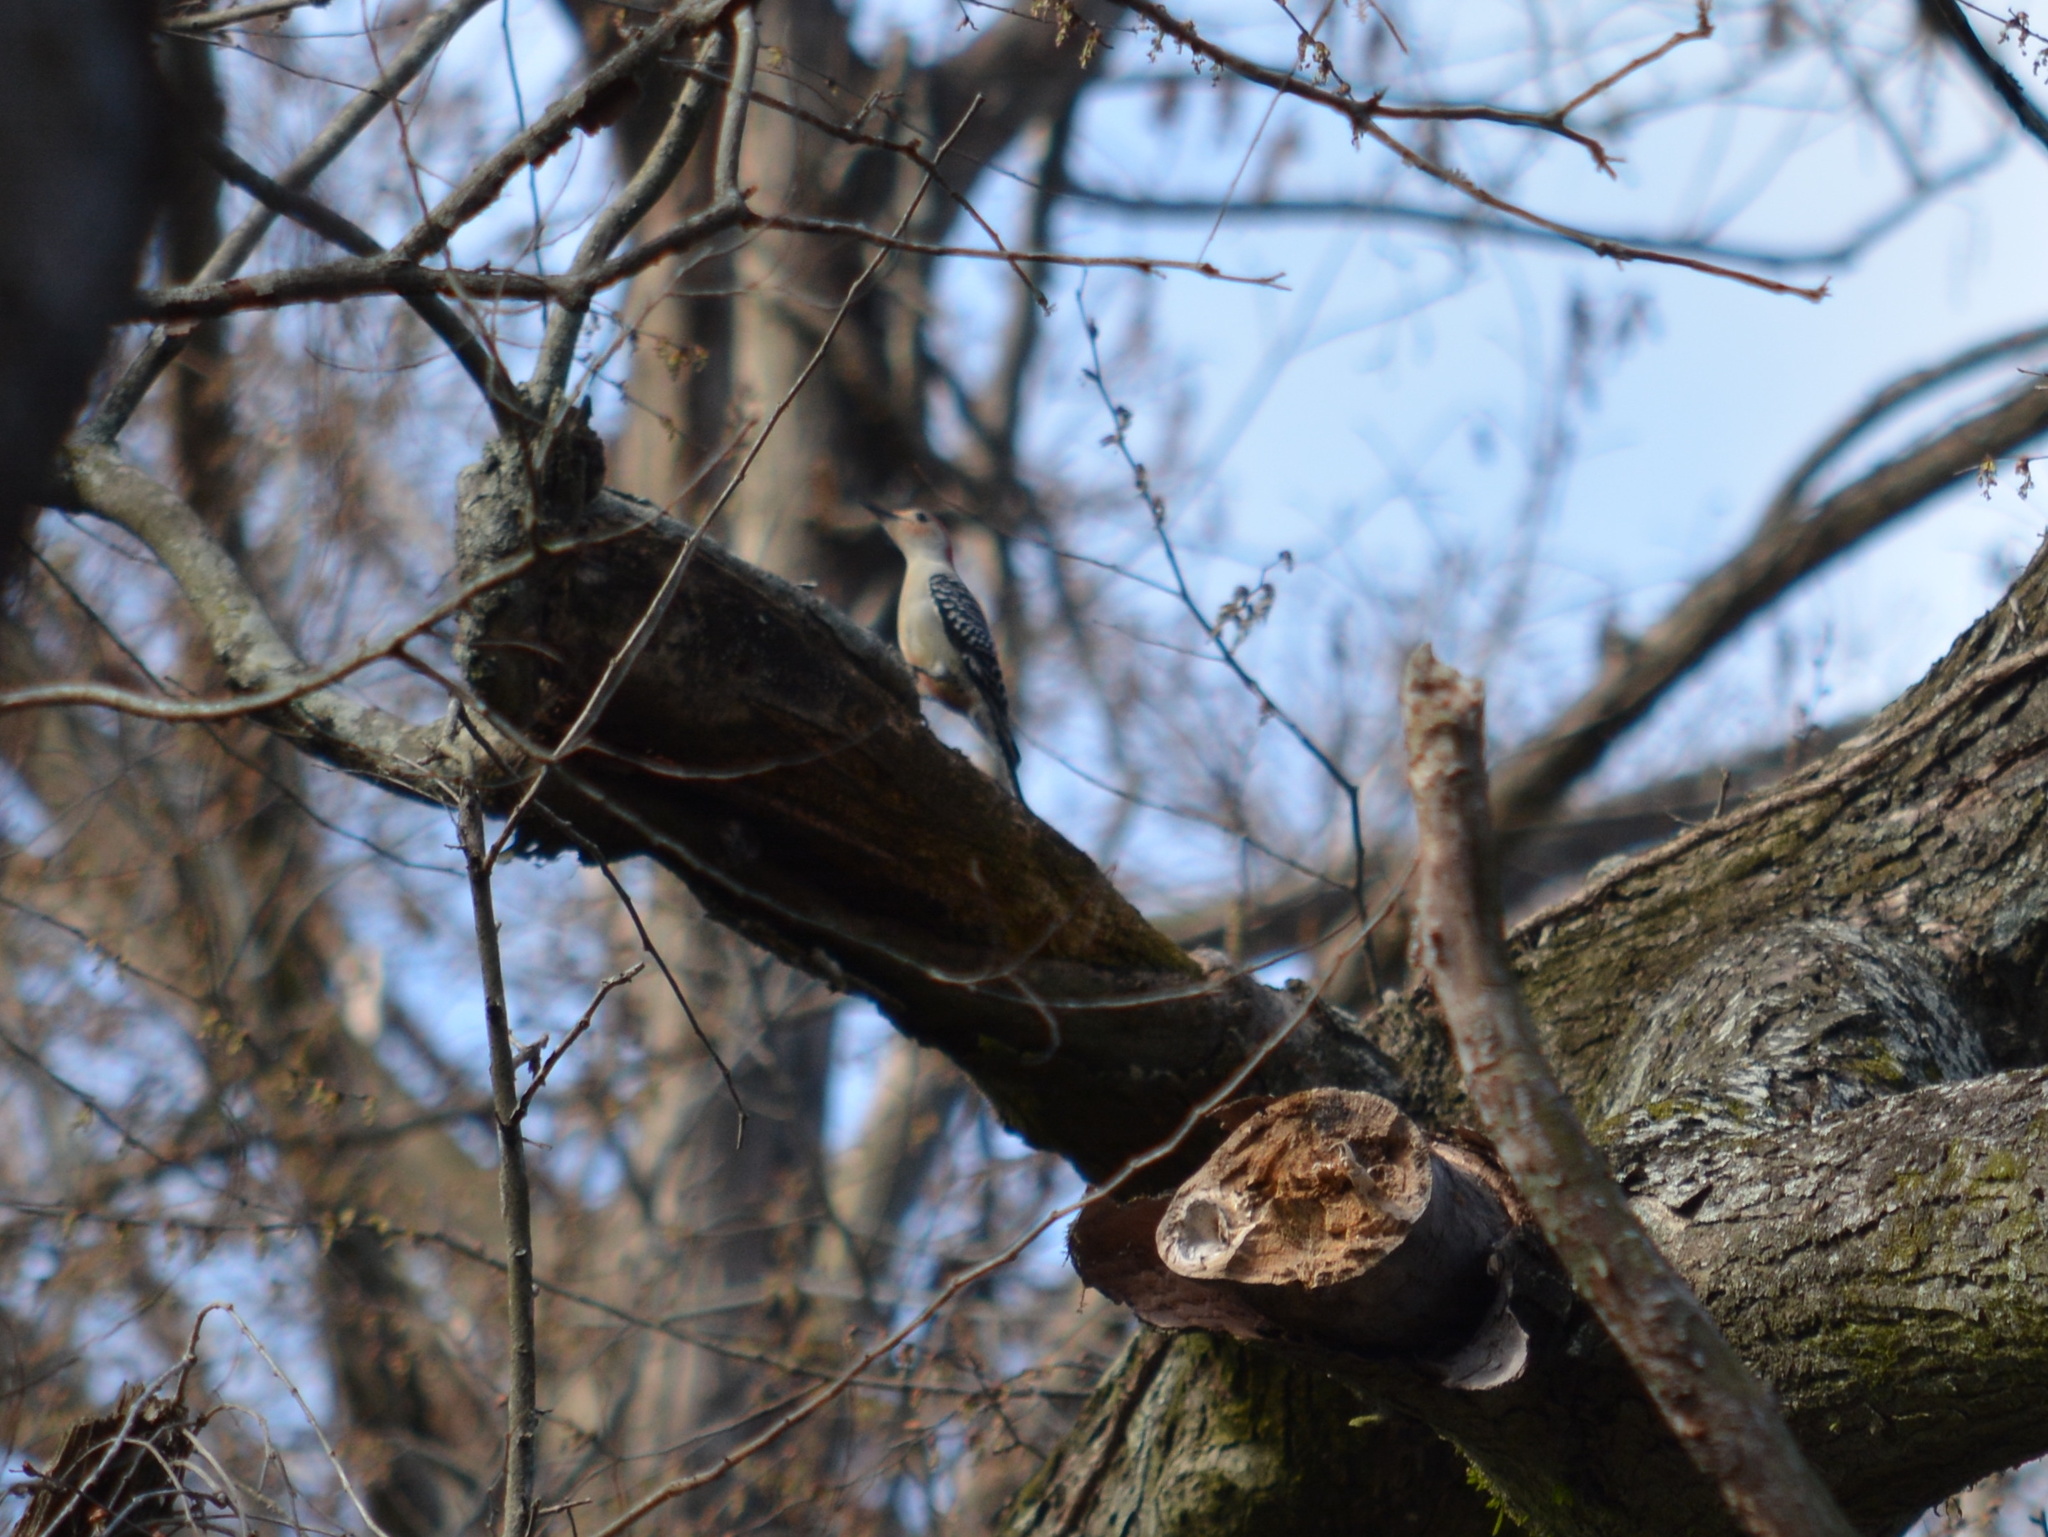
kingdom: Animalia
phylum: Chordata
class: Aves
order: Piciformes
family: Picidae
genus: Melanerpes
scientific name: Melanerpes carolinus
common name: Red-bellied woodpecker
